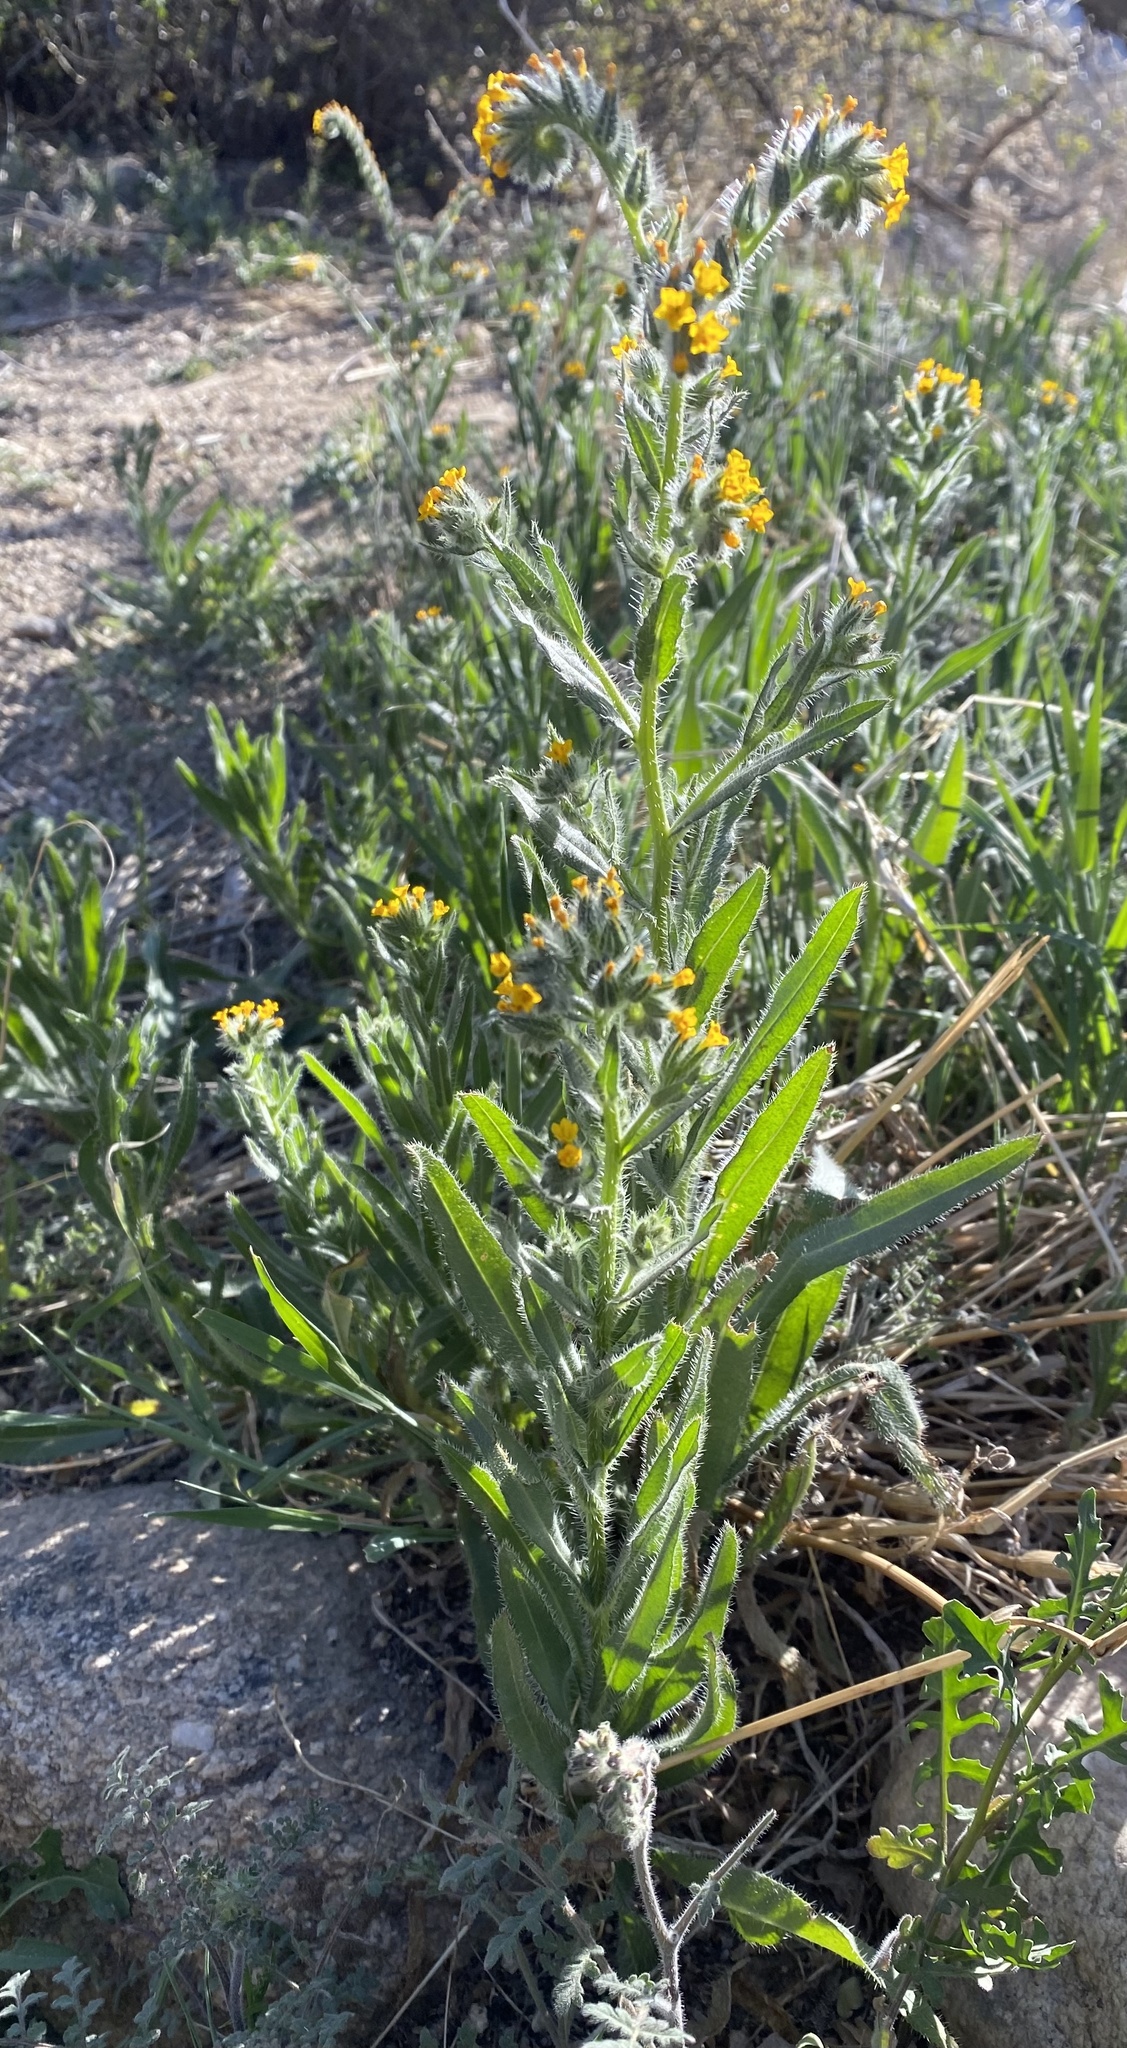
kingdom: Plantae
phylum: Tracheophyta
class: Magnoliopsida
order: Boraginales
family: Boraginaceae
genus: Amsinckia
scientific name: Amsinckia menziesii
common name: Menzies' fiddleneck
